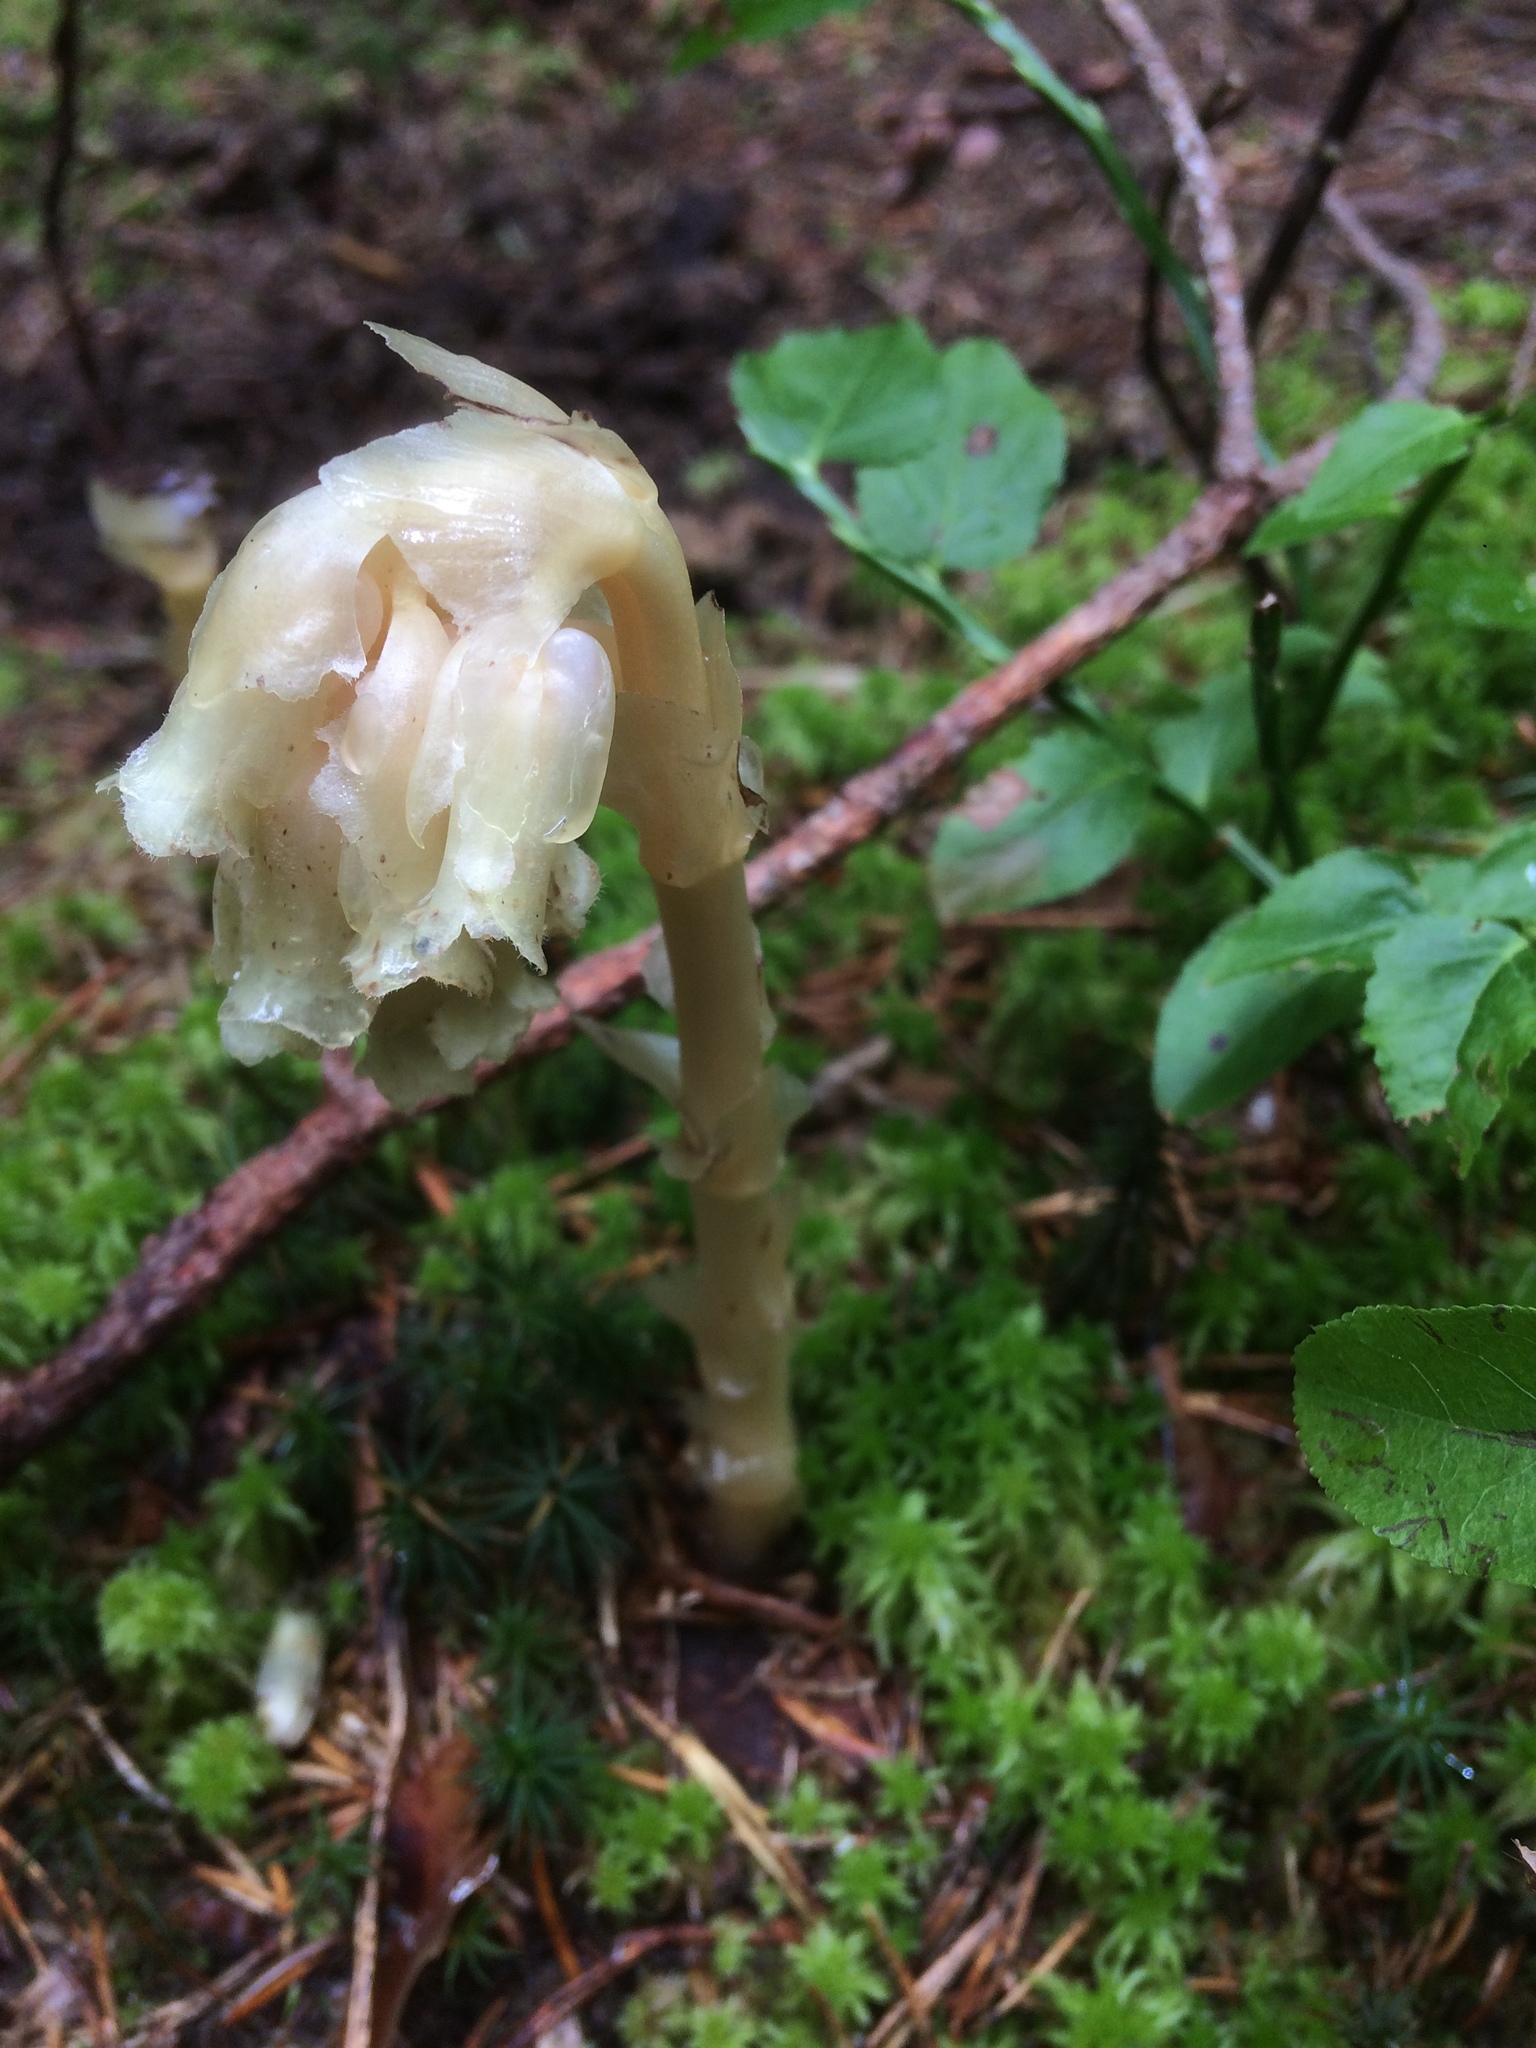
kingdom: Plantae
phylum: Tracheophyta
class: Magnoliopsida
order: Ericales
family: Ericaceae
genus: Hypopitys
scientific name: Hypopitys monotropa
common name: Yellow bird's-nest
